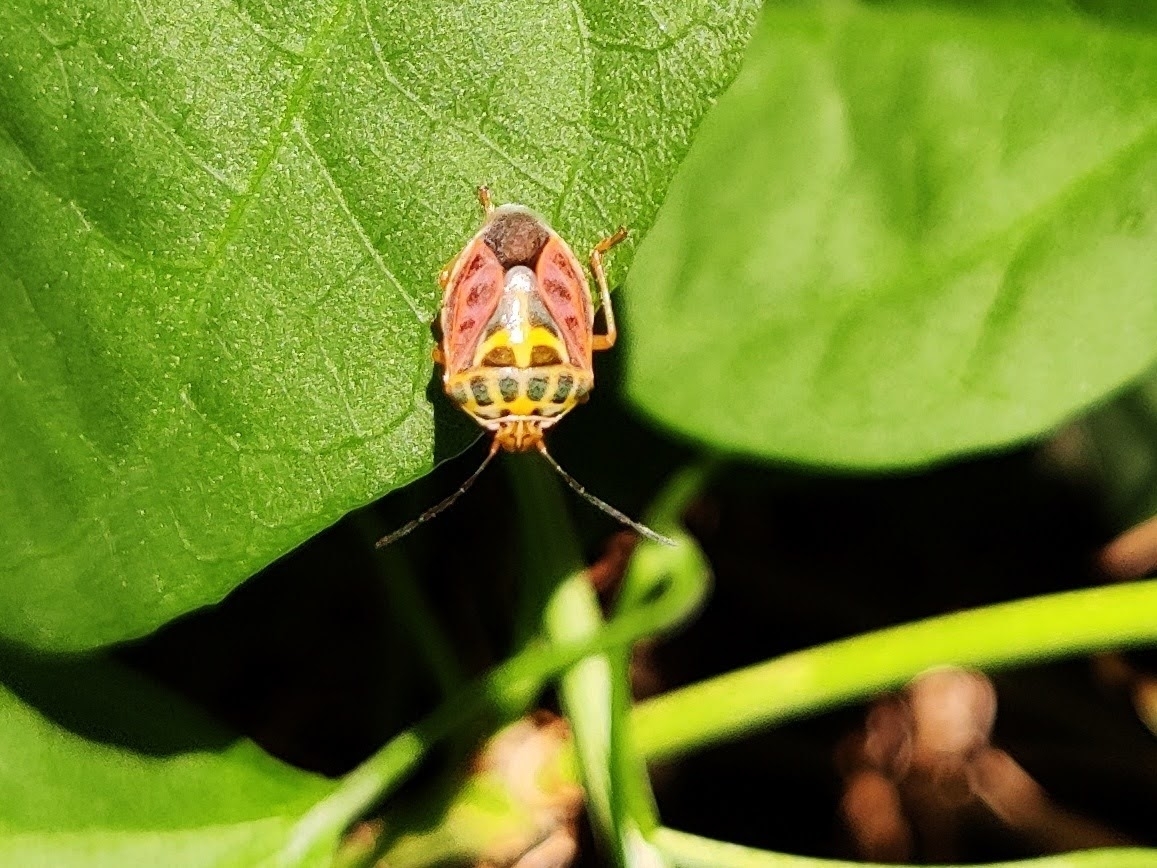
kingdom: Animalia
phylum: Arthropoda
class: Insecta
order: Hemiptera
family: Pentatomidae
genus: Antestiopsis
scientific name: Antestiopsis cruciata
